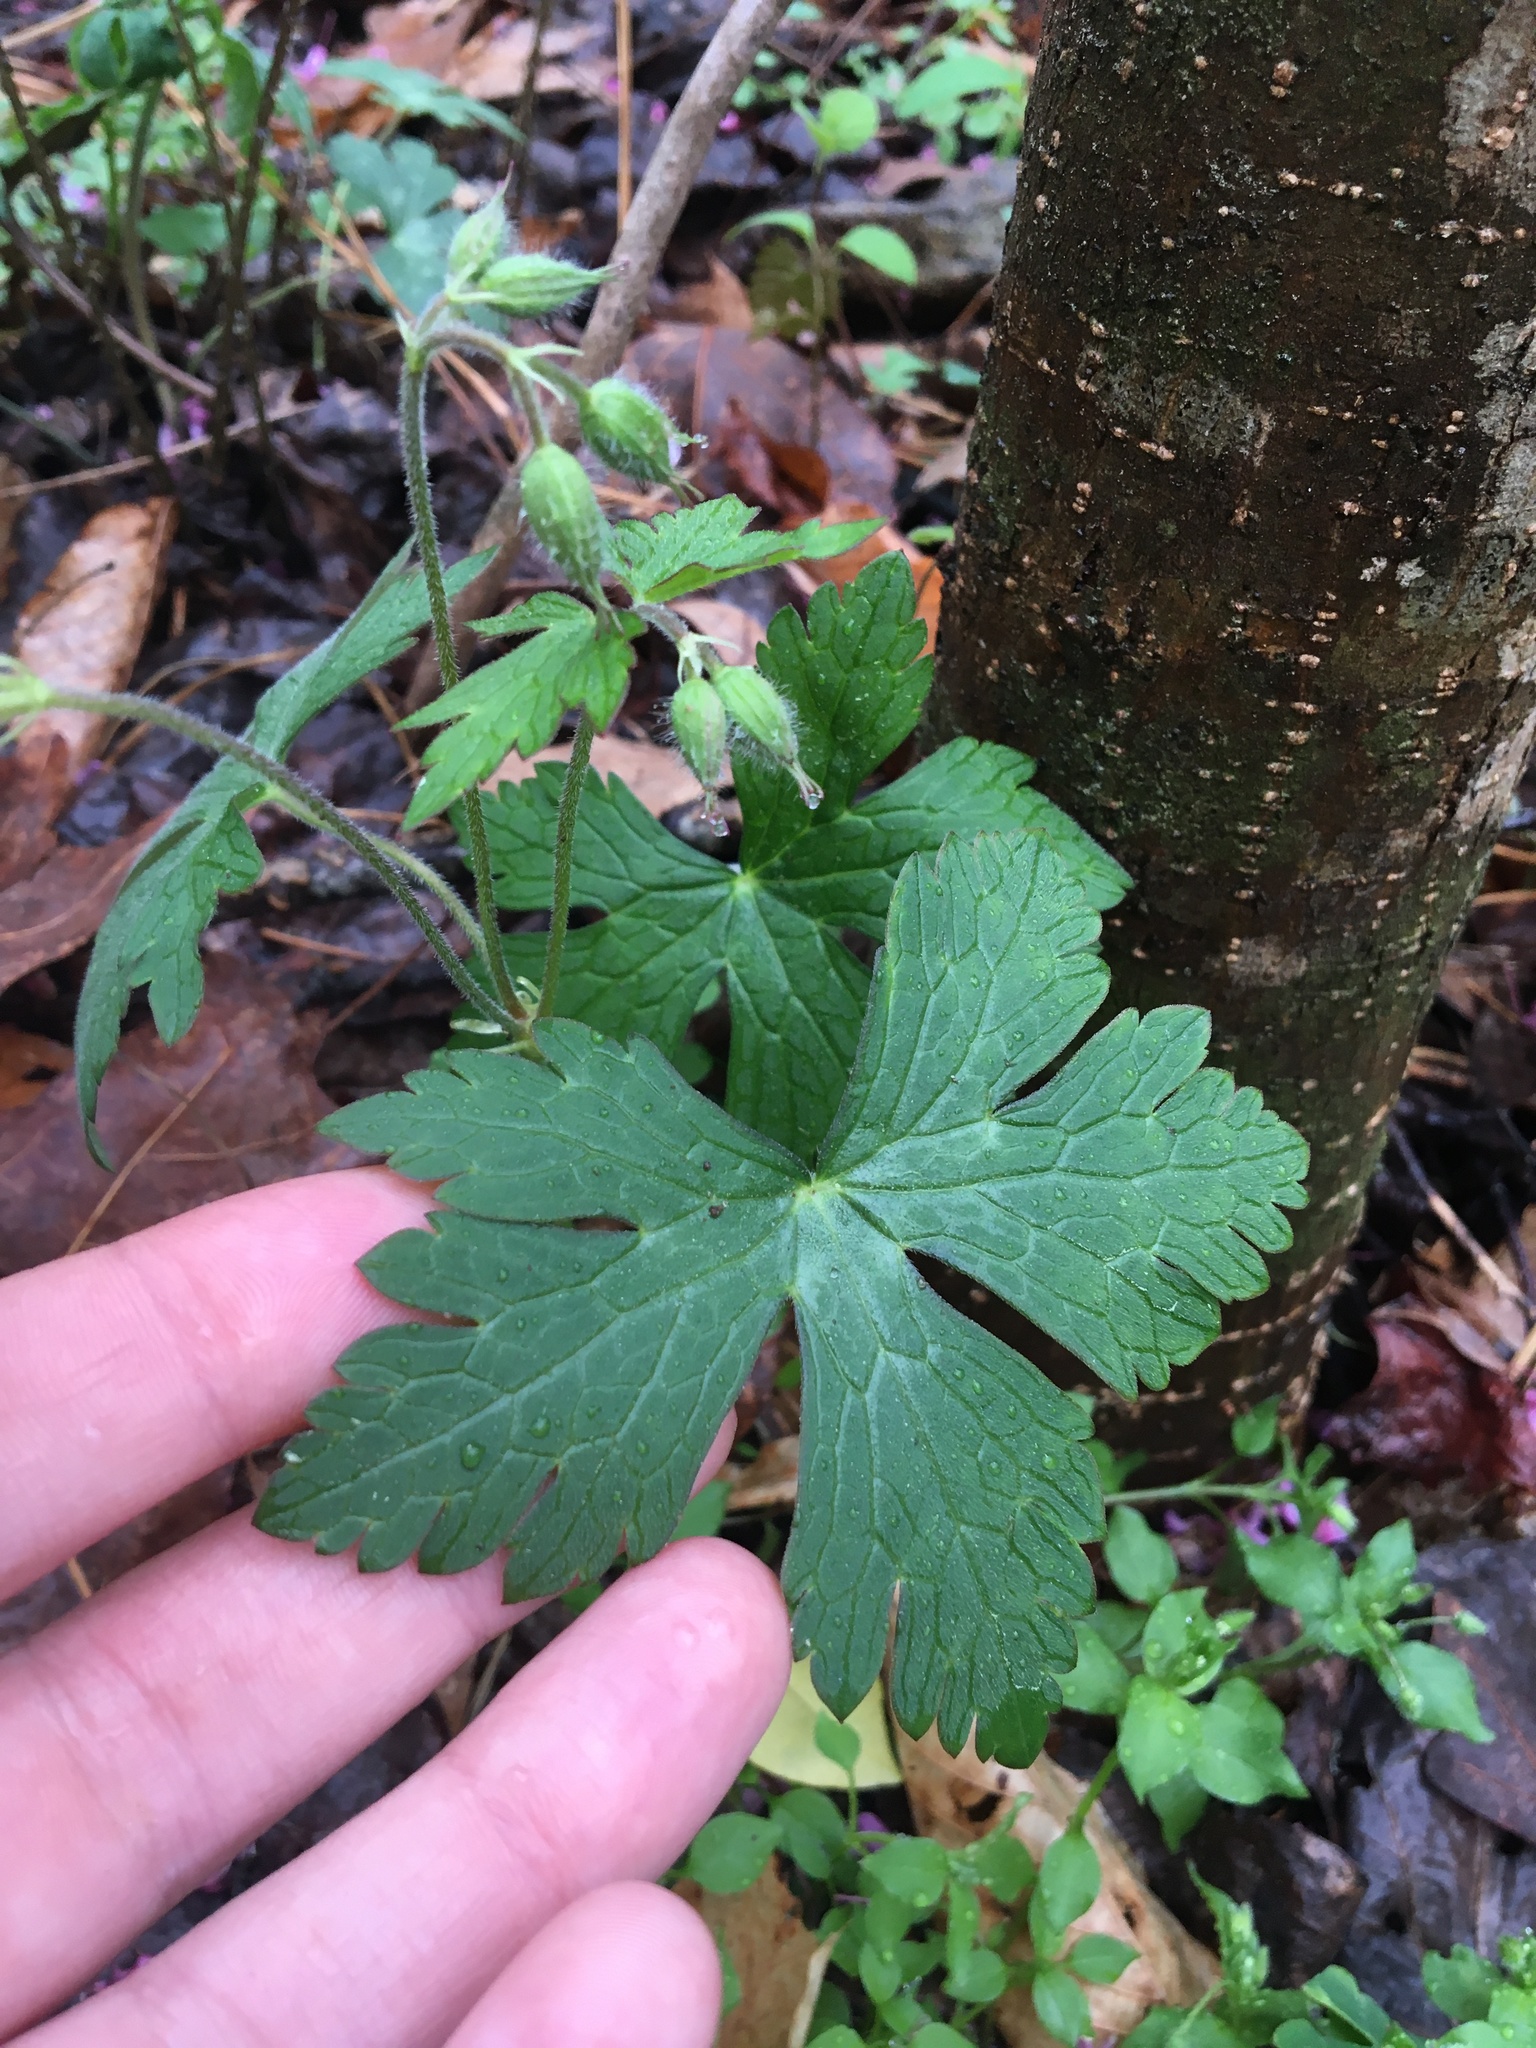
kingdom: Plantae
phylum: Tracheophyta
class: Magnoliopsida
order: Geraniales
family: Geraniaceae
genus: Geranium
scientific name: Geranium maculatum
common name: Spotted geranium
